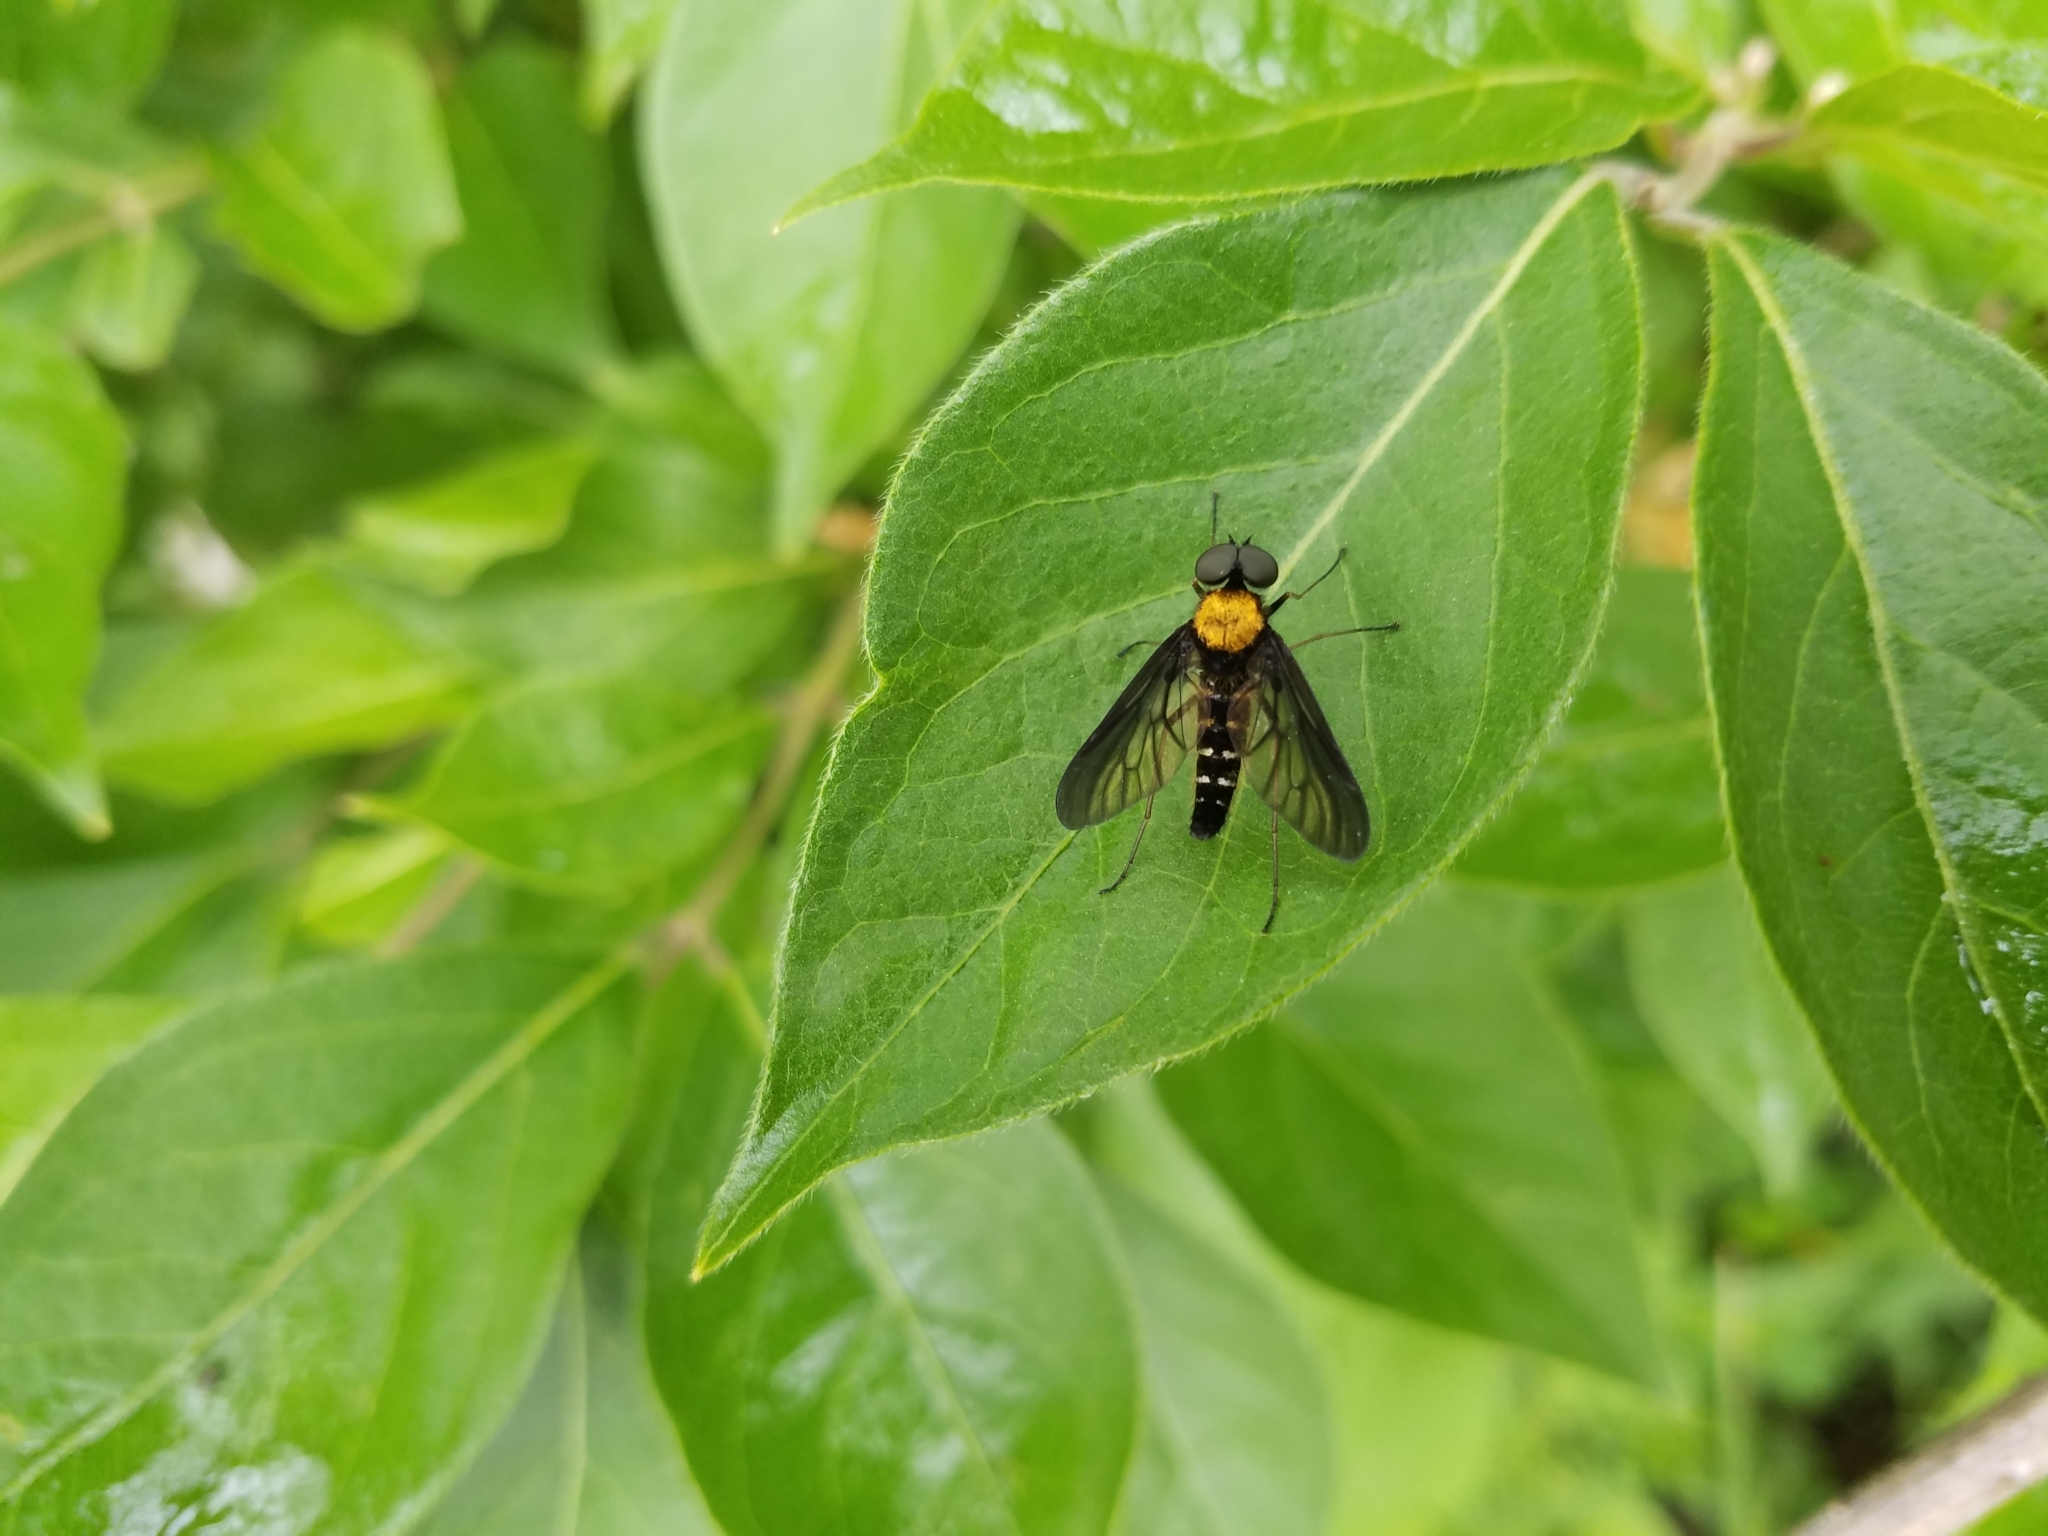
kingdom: Animalia
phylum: Arthropoda
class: Insecta
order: Diptera
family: Rhagionidae
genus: Chrysopilus
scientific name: Chrysopilus thoracicus
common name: Golden-backed snipe fly
